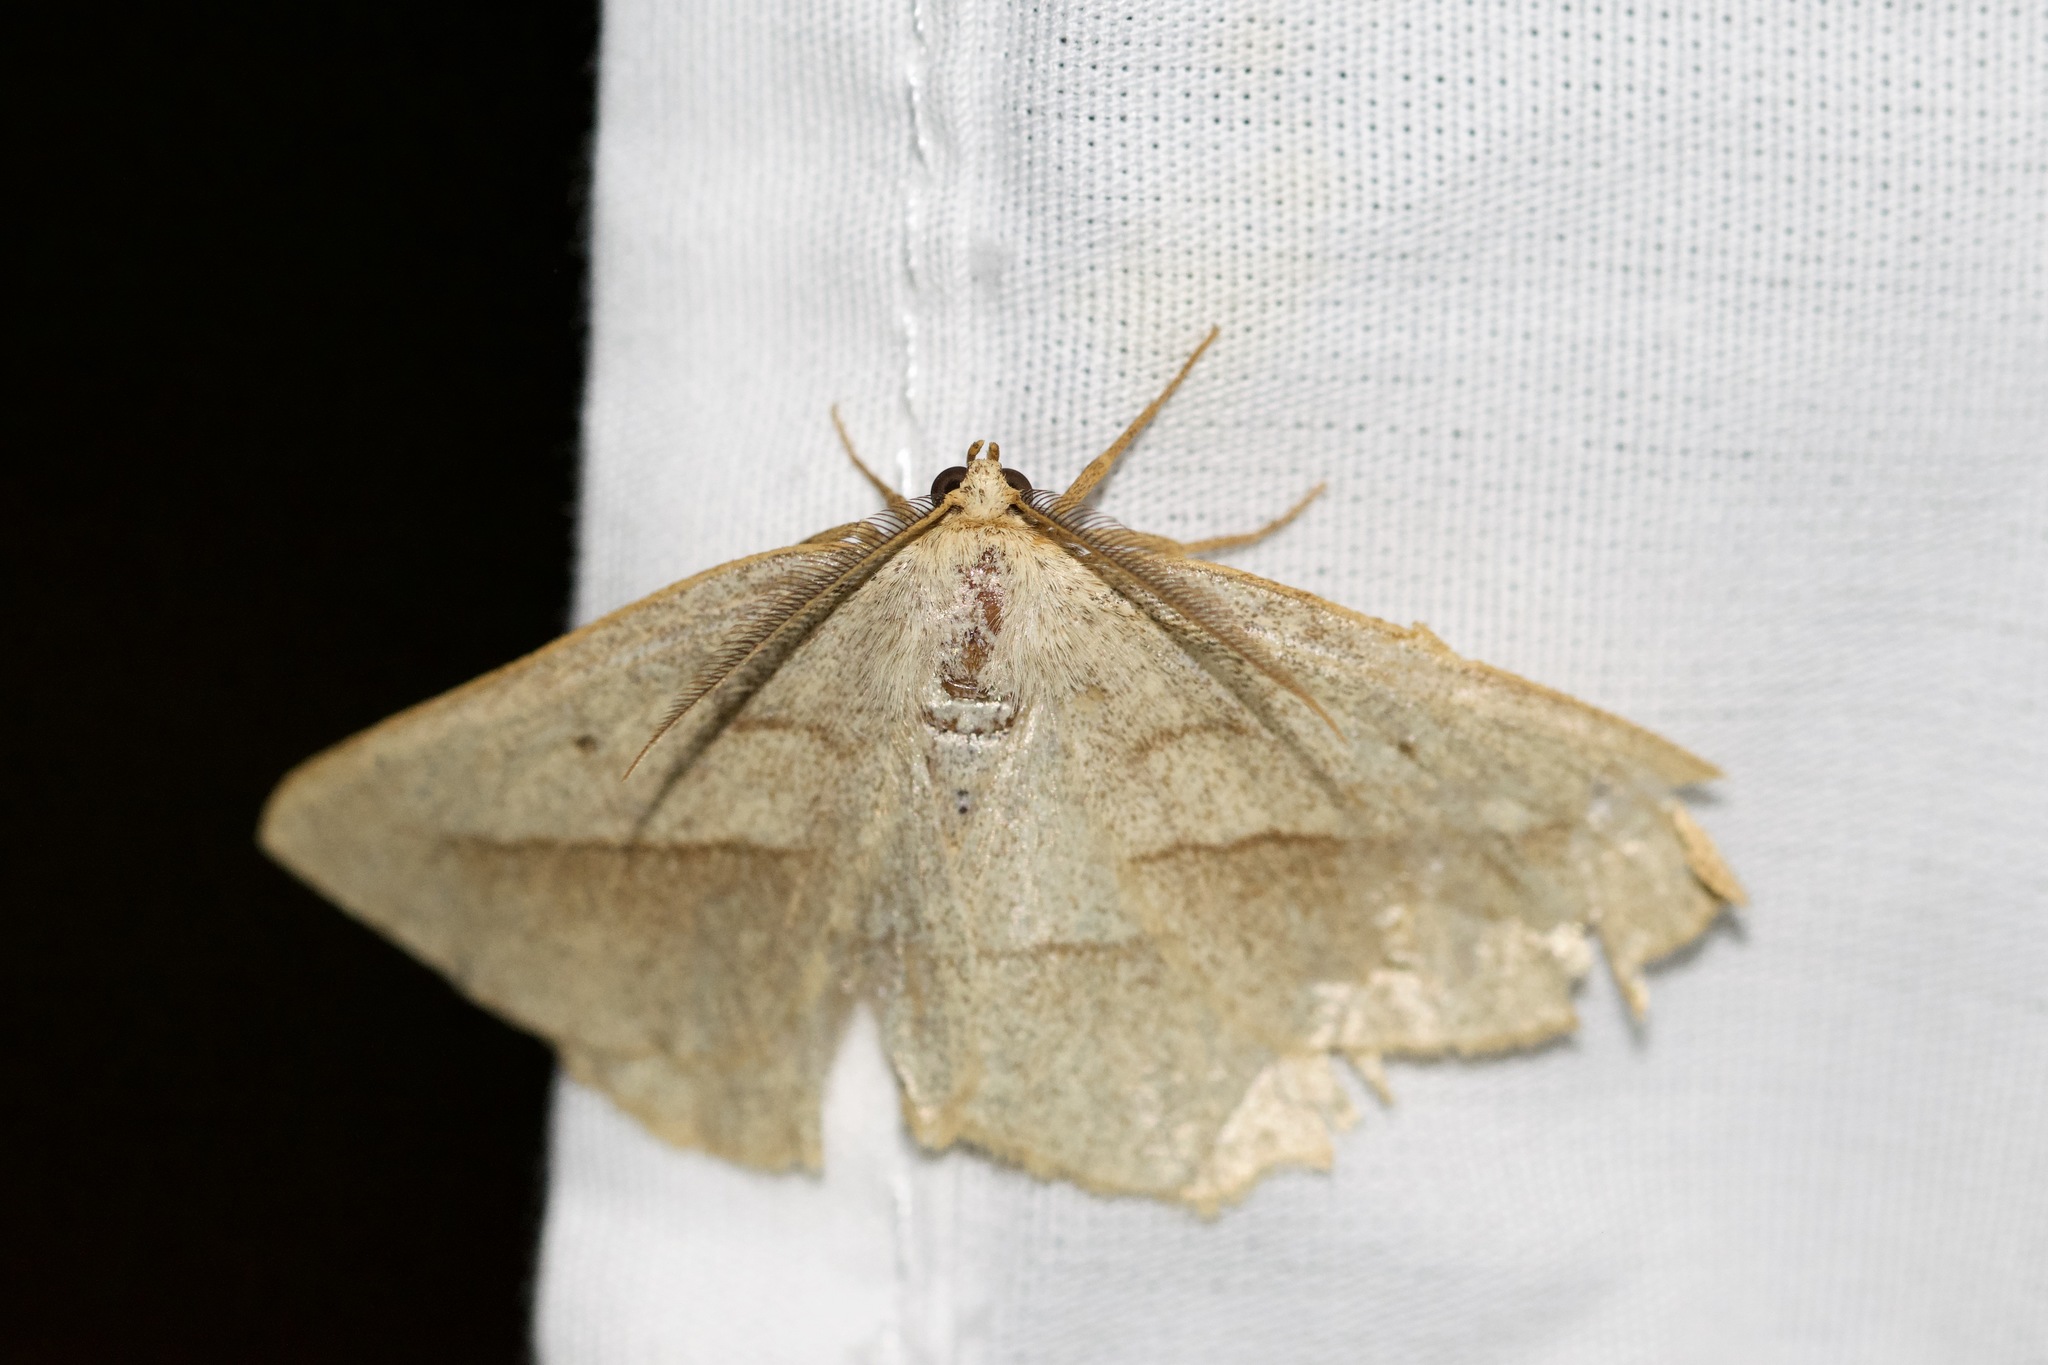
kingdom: Animalia
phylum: Arthropoda
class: Insecta
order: Lepidoptera
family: Geometridae
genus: Euchlaena
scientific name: Euchlaena irraria
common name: Least-marked euchlaena
